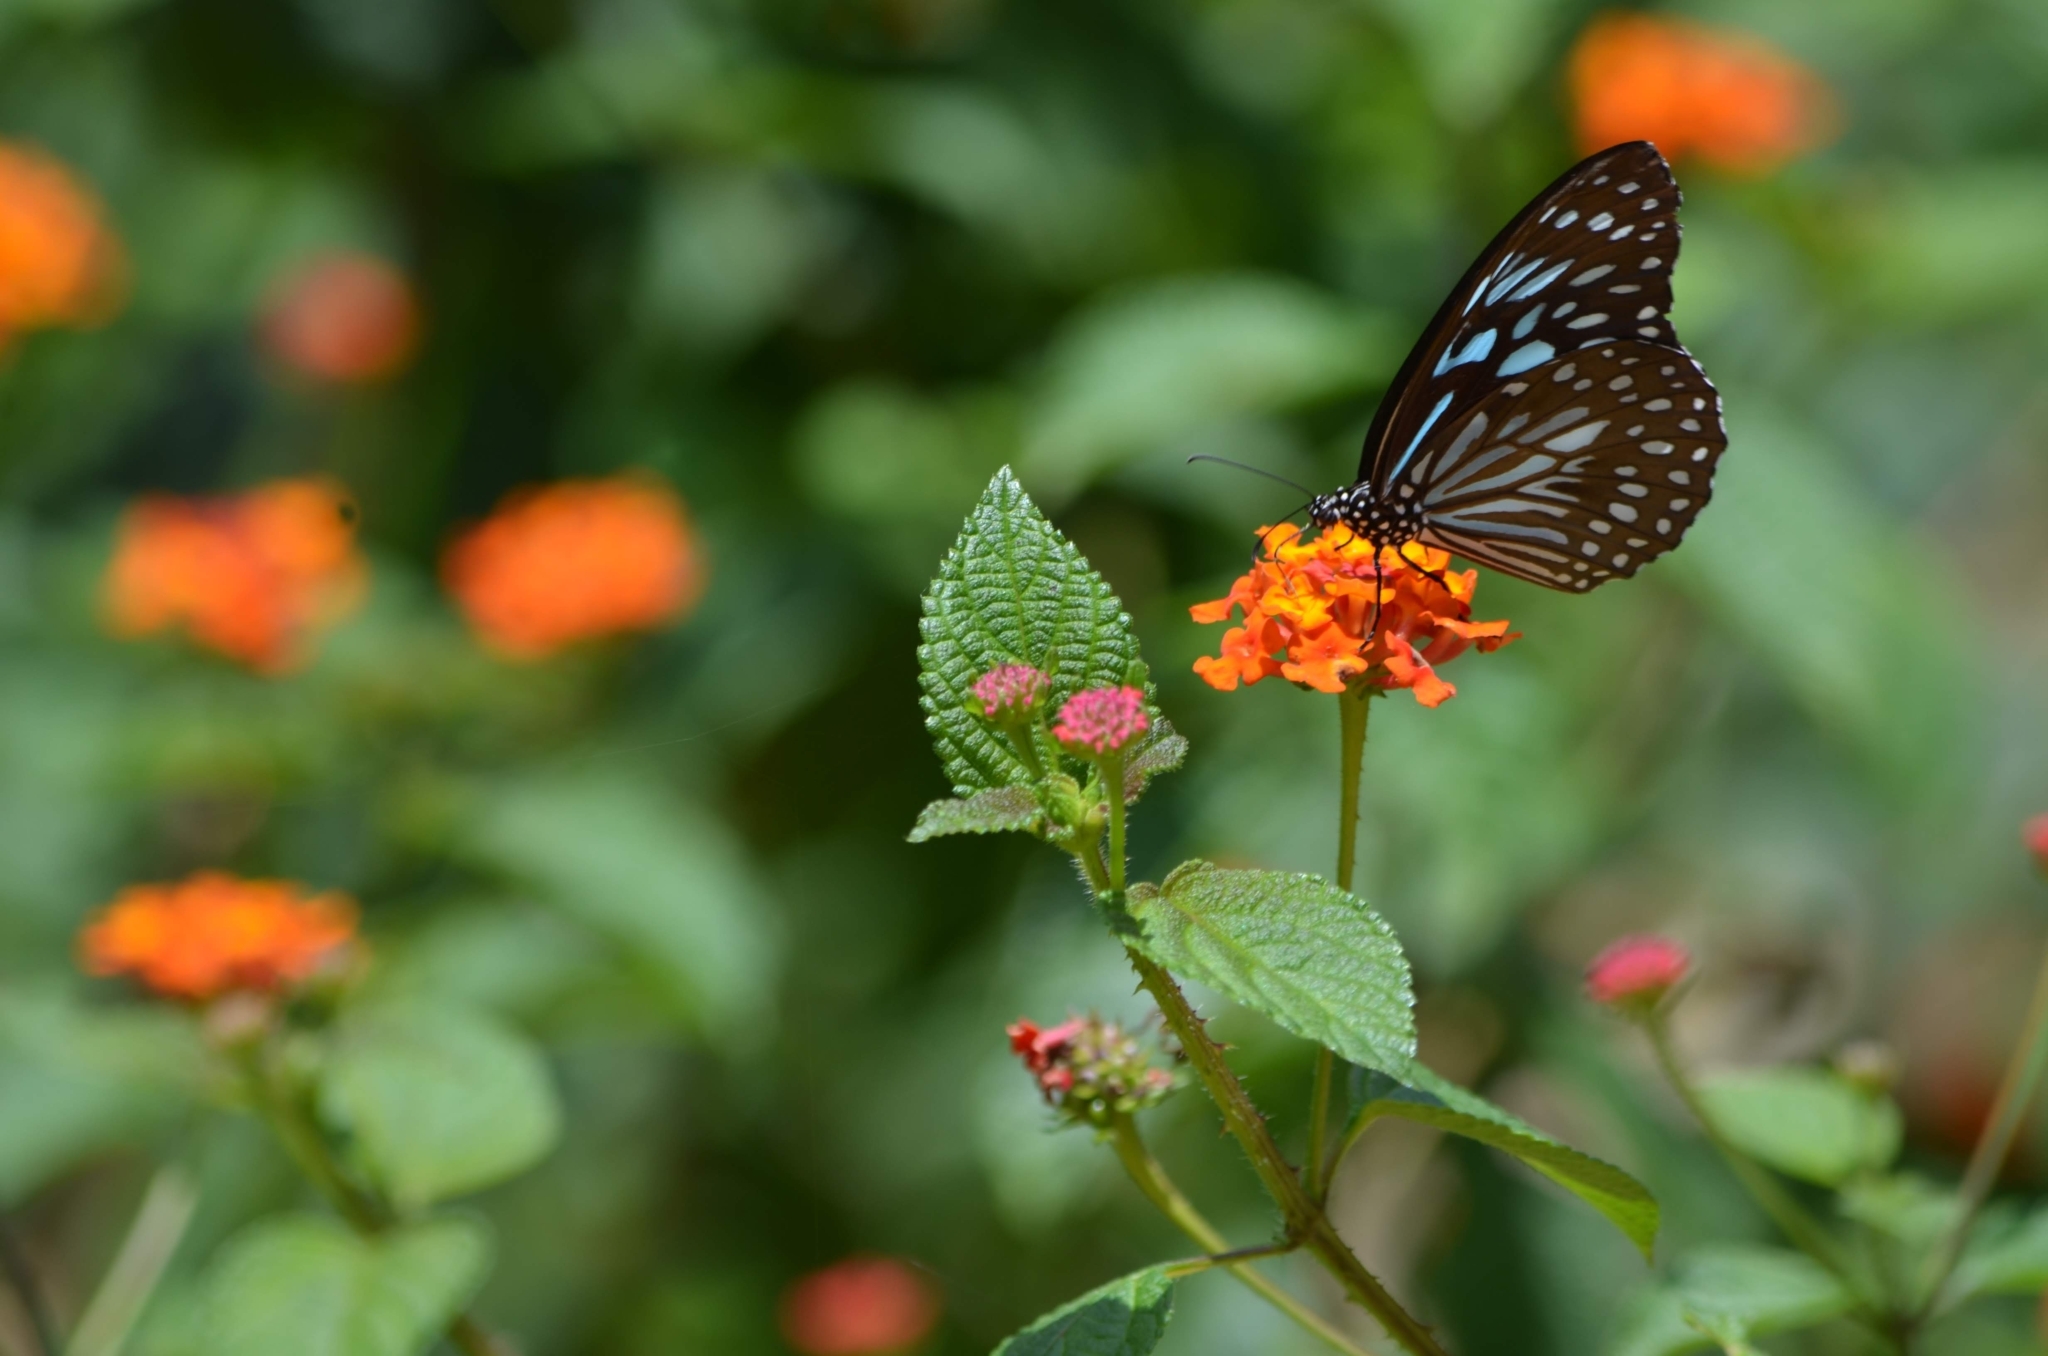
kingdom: Animalia
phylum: Arthropoda
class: Insecta
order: Lepidoptera
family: Nymphalidae
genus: Tirumala
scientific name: Tirumala septentrionis
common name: Dark blue tiger butterfly
